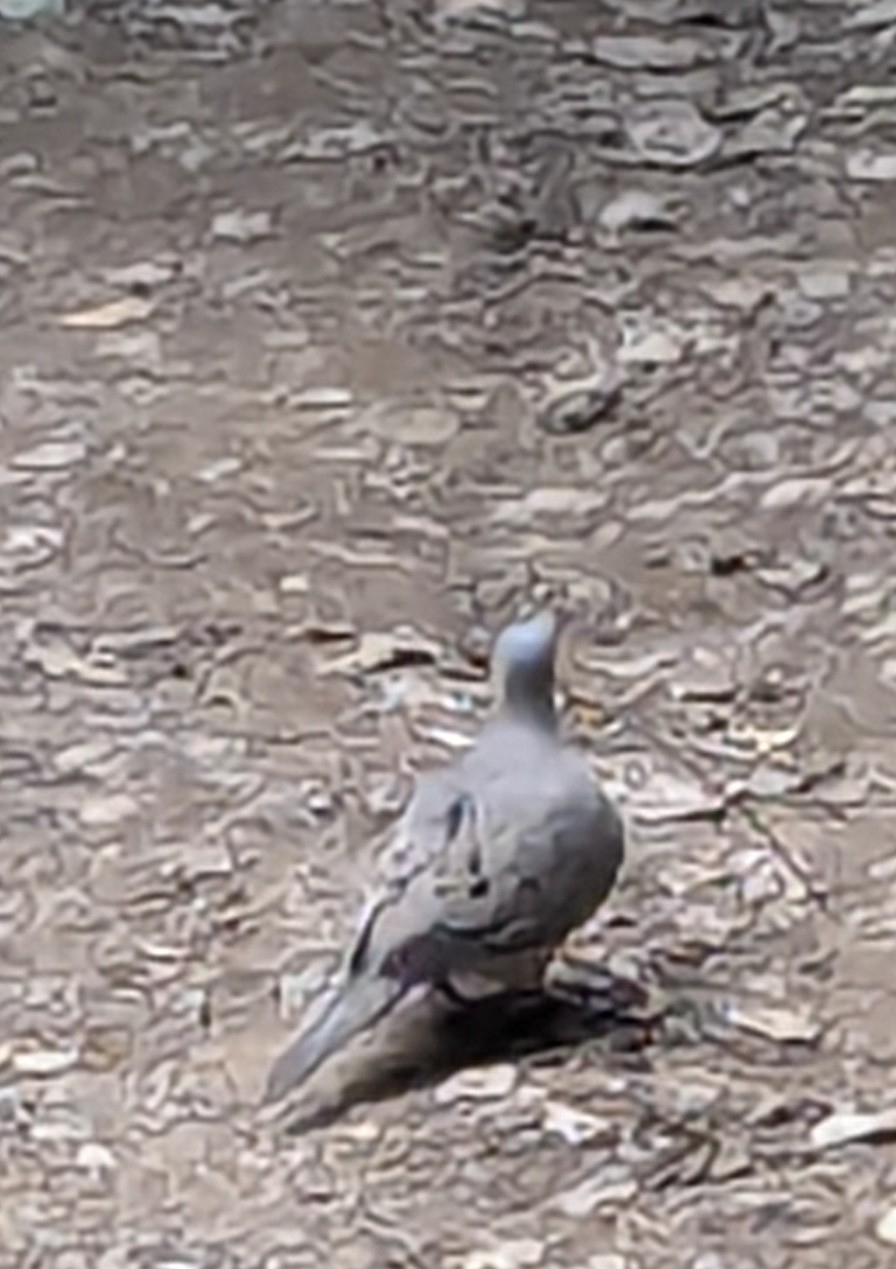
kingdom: Animalia
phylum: Chordata
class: Aves
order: Columbiformes
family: Columbidae
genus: Zenaida
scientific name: Zenaida macroura
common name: Mourning dove
